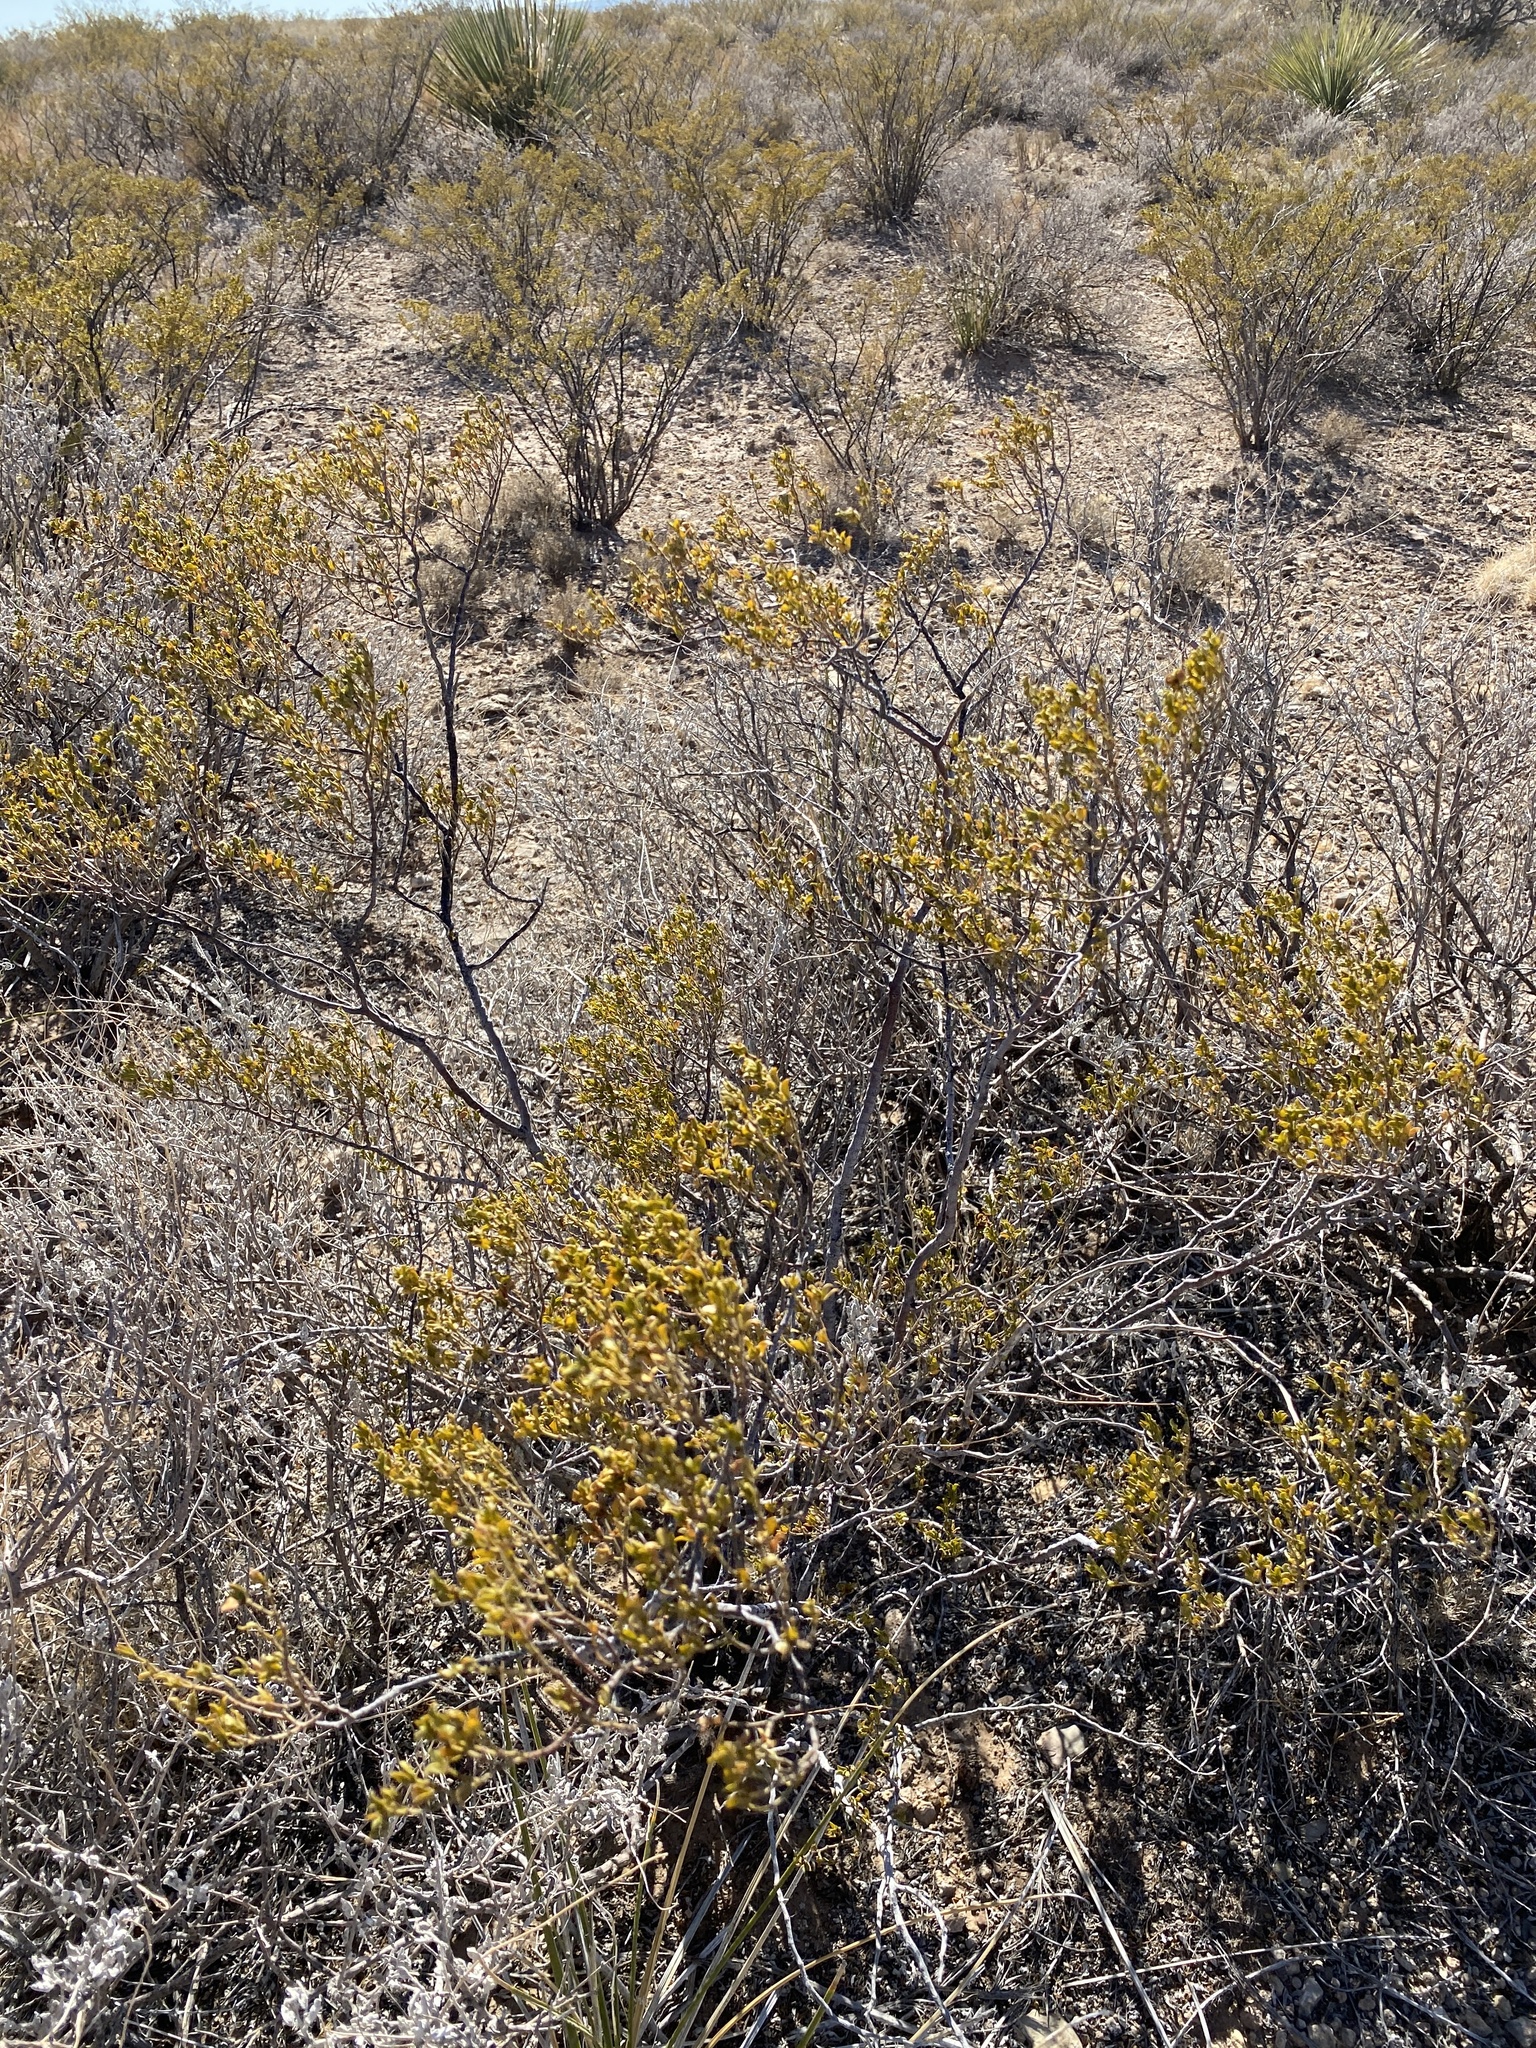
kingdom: Plantae
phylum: Tracheophyta
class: Magnoliopsida
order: Zygophyllales
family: Zygophyllaceae
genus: Larrea
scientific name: Larrea tridentata
